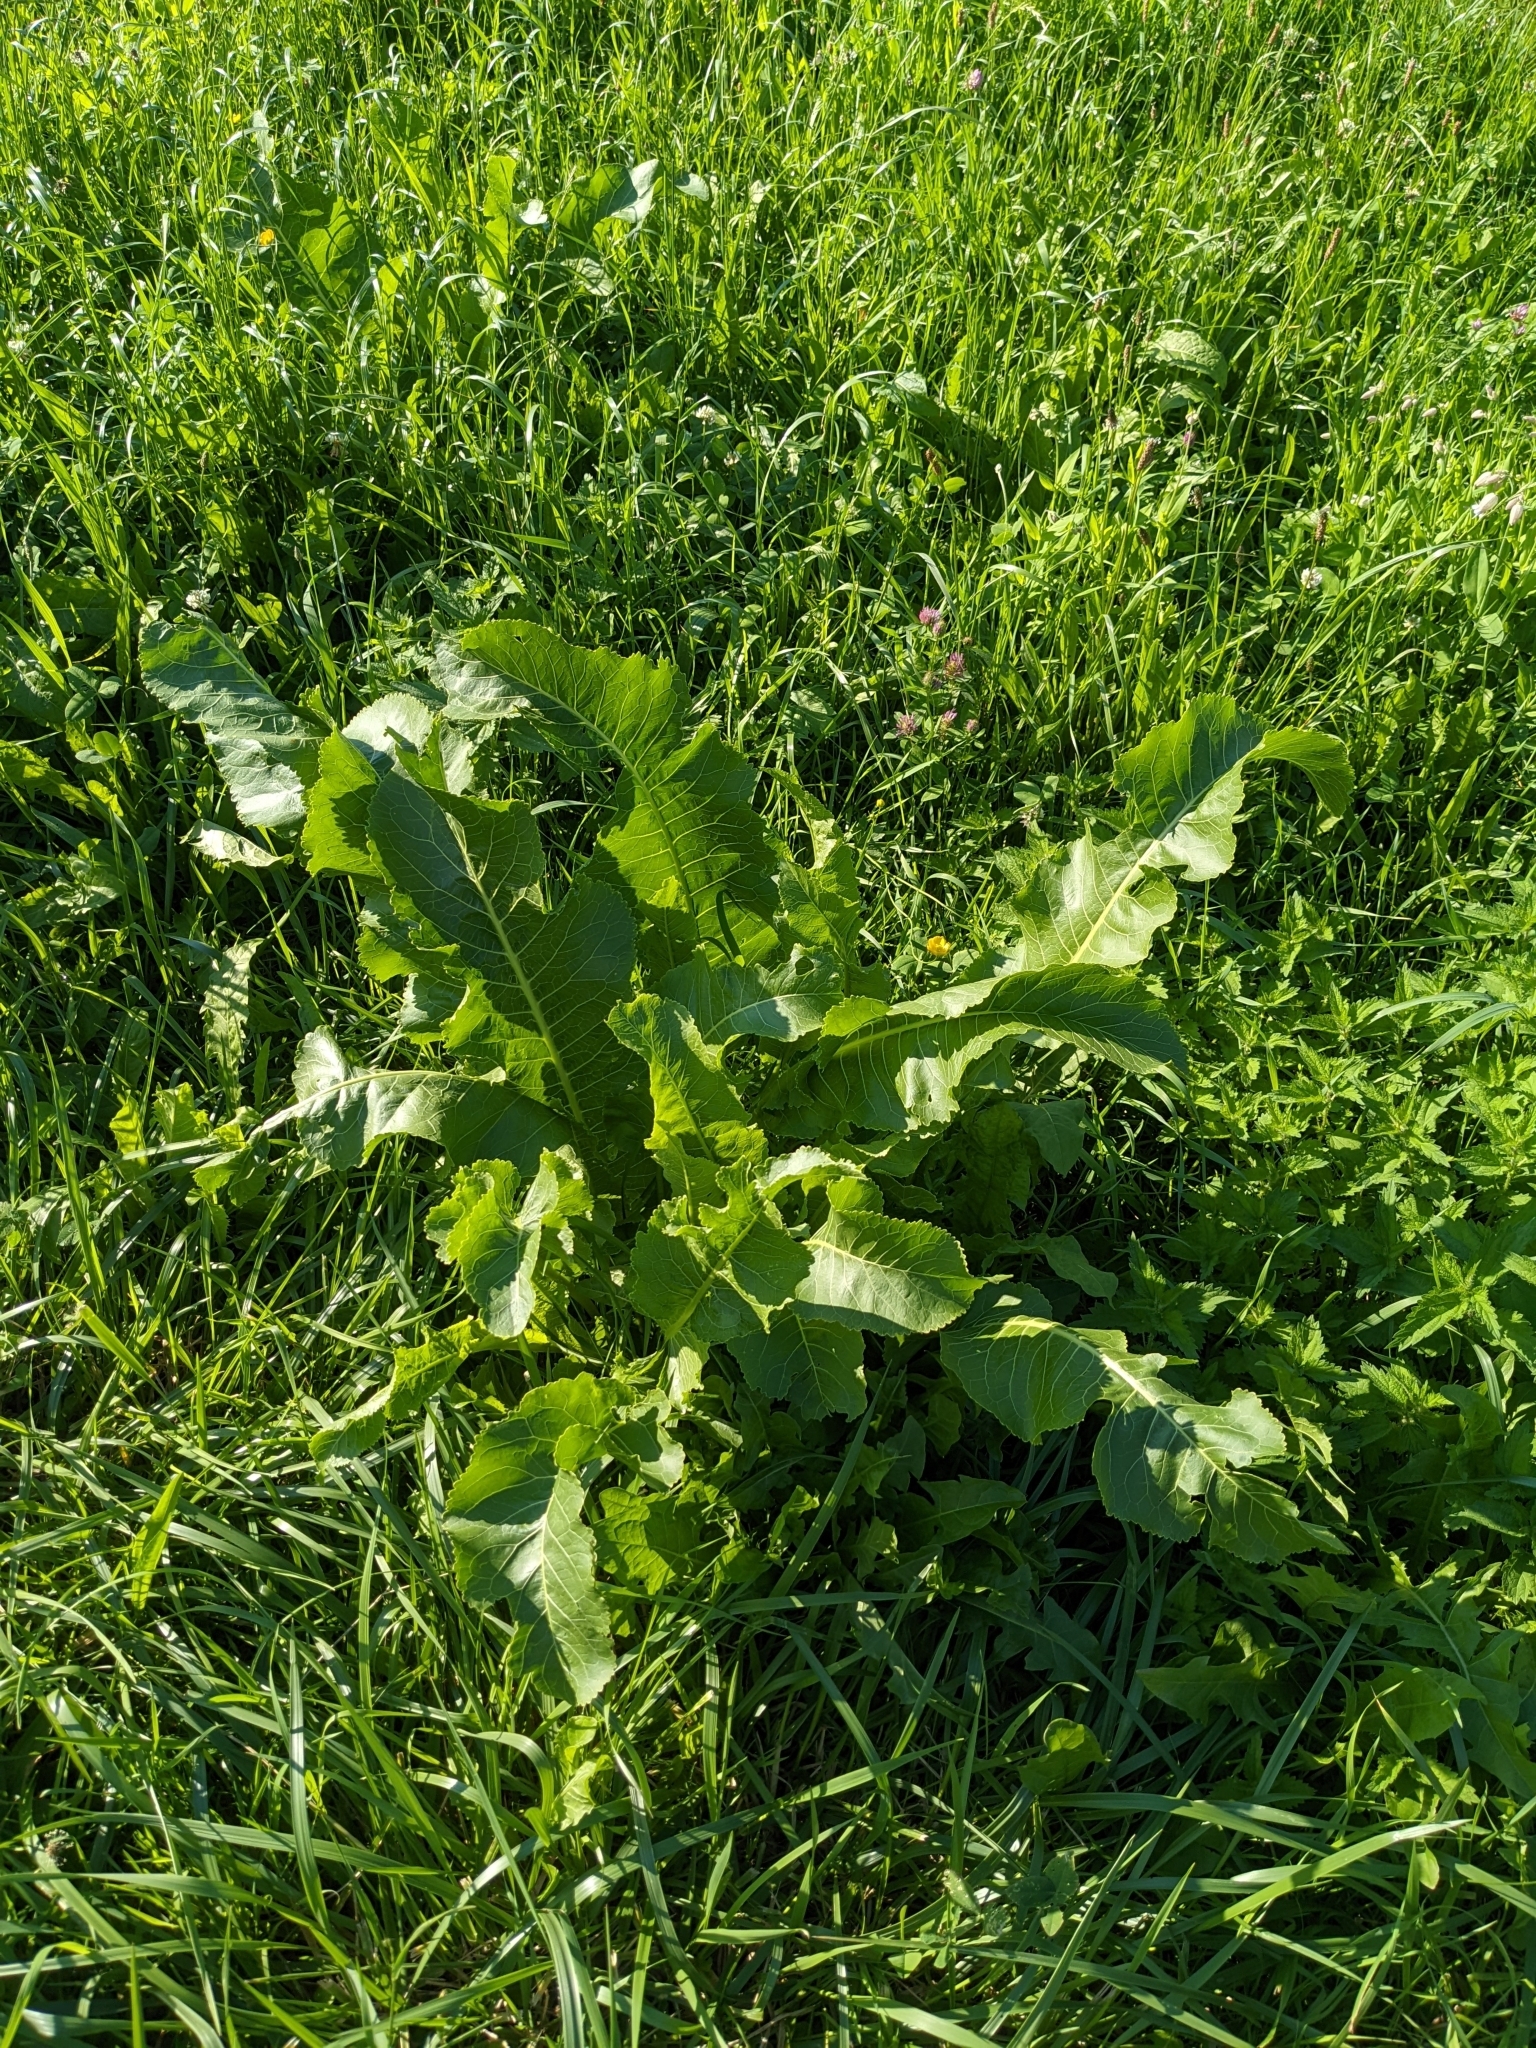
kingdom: Plantae
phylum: Tracheophyta
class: Magnoliopsida
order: Brassicales
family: Brassicaceae
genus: Armoracia
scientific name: Armoracia rusticana
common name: Horseradish
